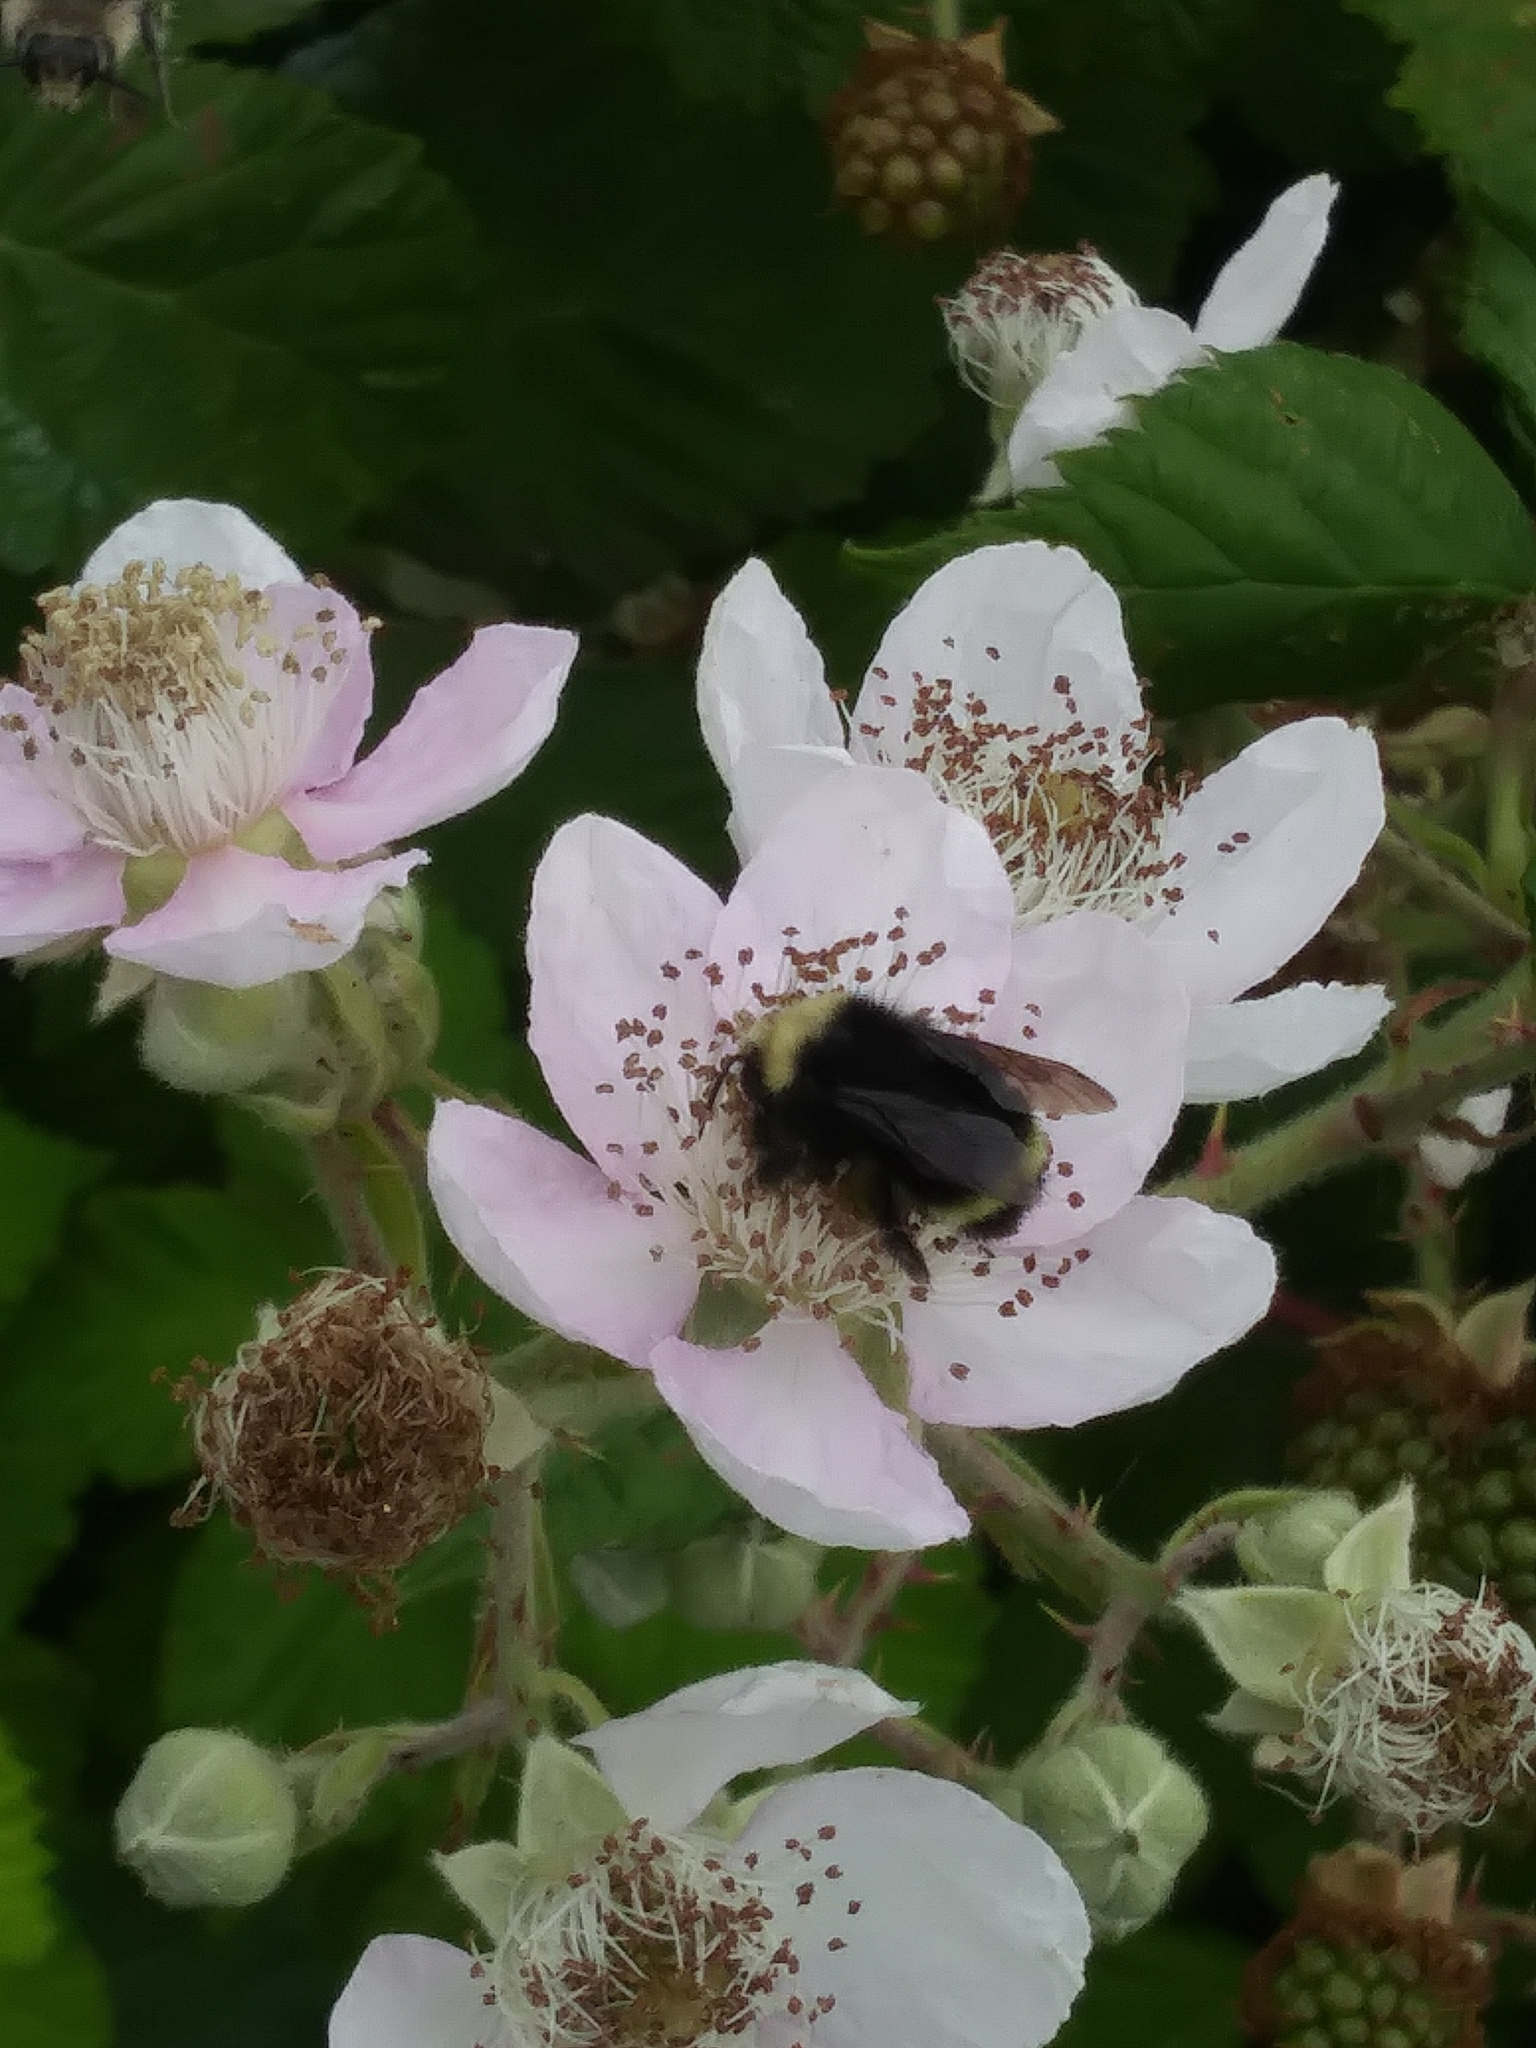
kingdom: Animalia
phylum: Arthropoda
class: Insecta
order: Hymenoptera
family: Apidae
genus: Bombus
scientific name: Bombus vosnesenskii
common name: Vosnesensky bumble bee
